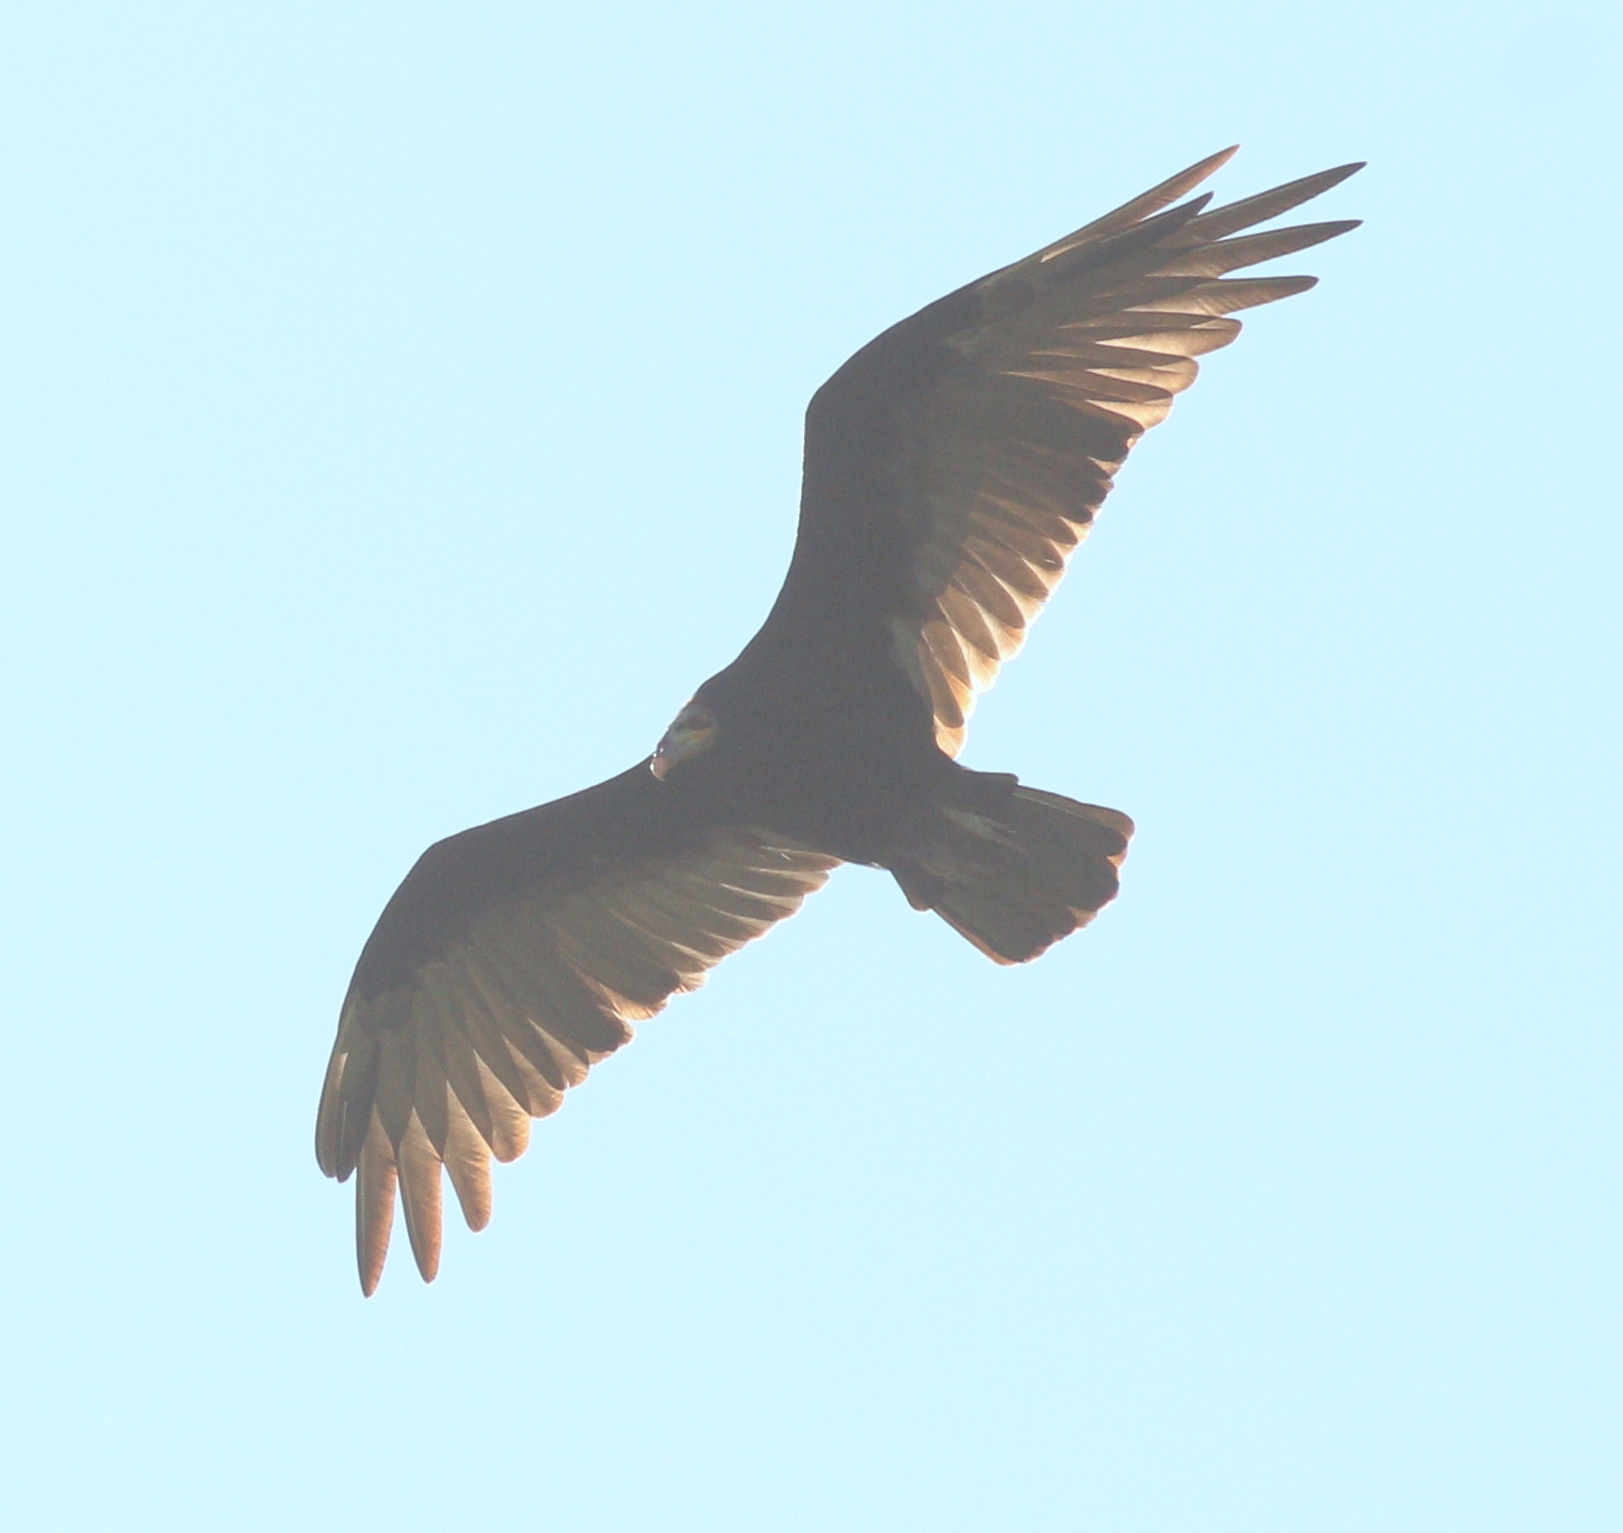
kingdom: Animalia
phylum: Chordata
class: Aves
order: Accipitriformes
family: Cathartidae
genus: Cathartes
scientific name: Cathartes burrovianus
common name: Lesser yellow-headed vulture
